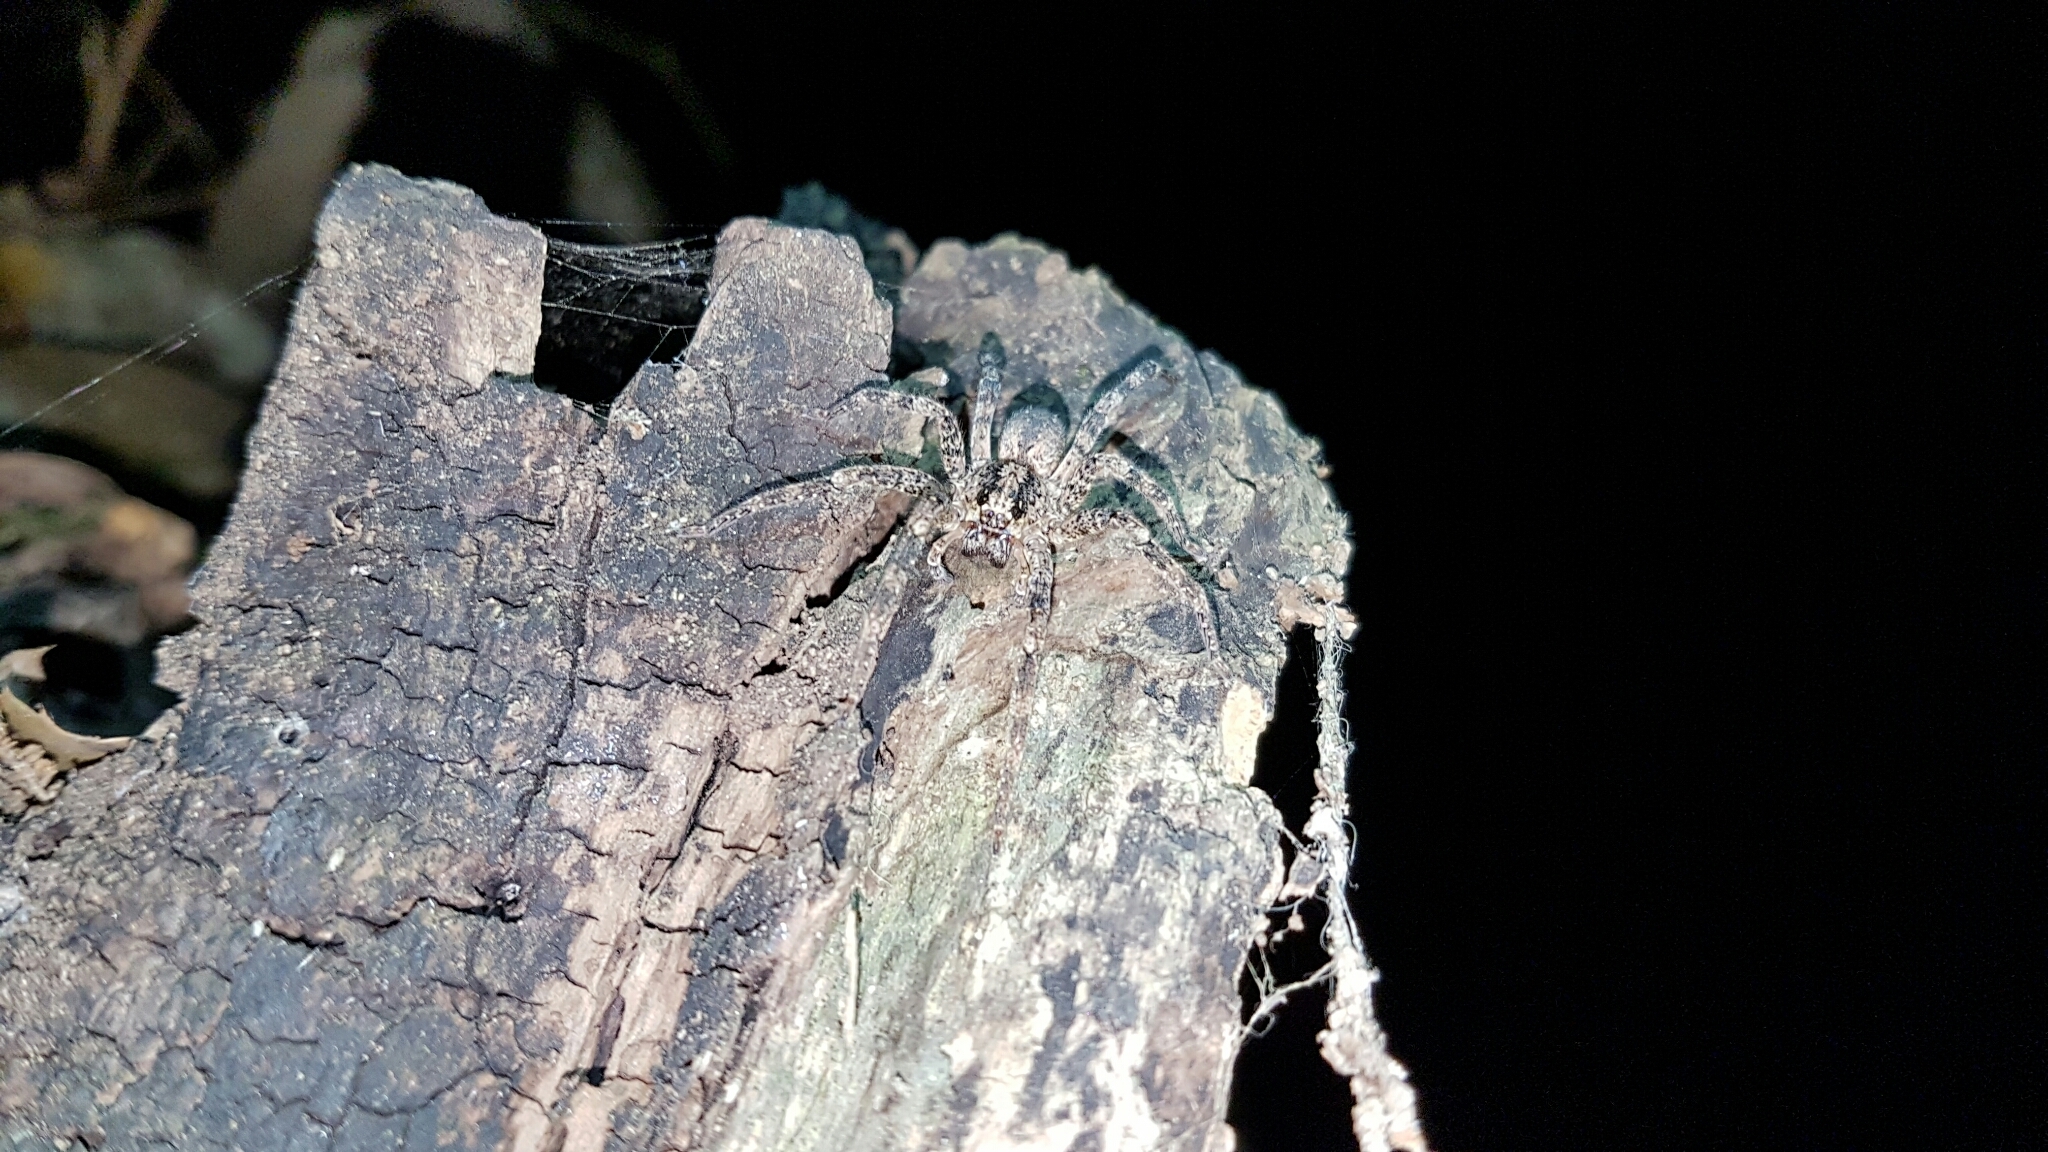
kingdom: Animalia
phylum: Arthropoda
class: Arachnida
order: Araneae
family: Zoropsidae
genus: Zoropsis
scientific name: Zoropsis spinimana
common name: Zoropsid spider
